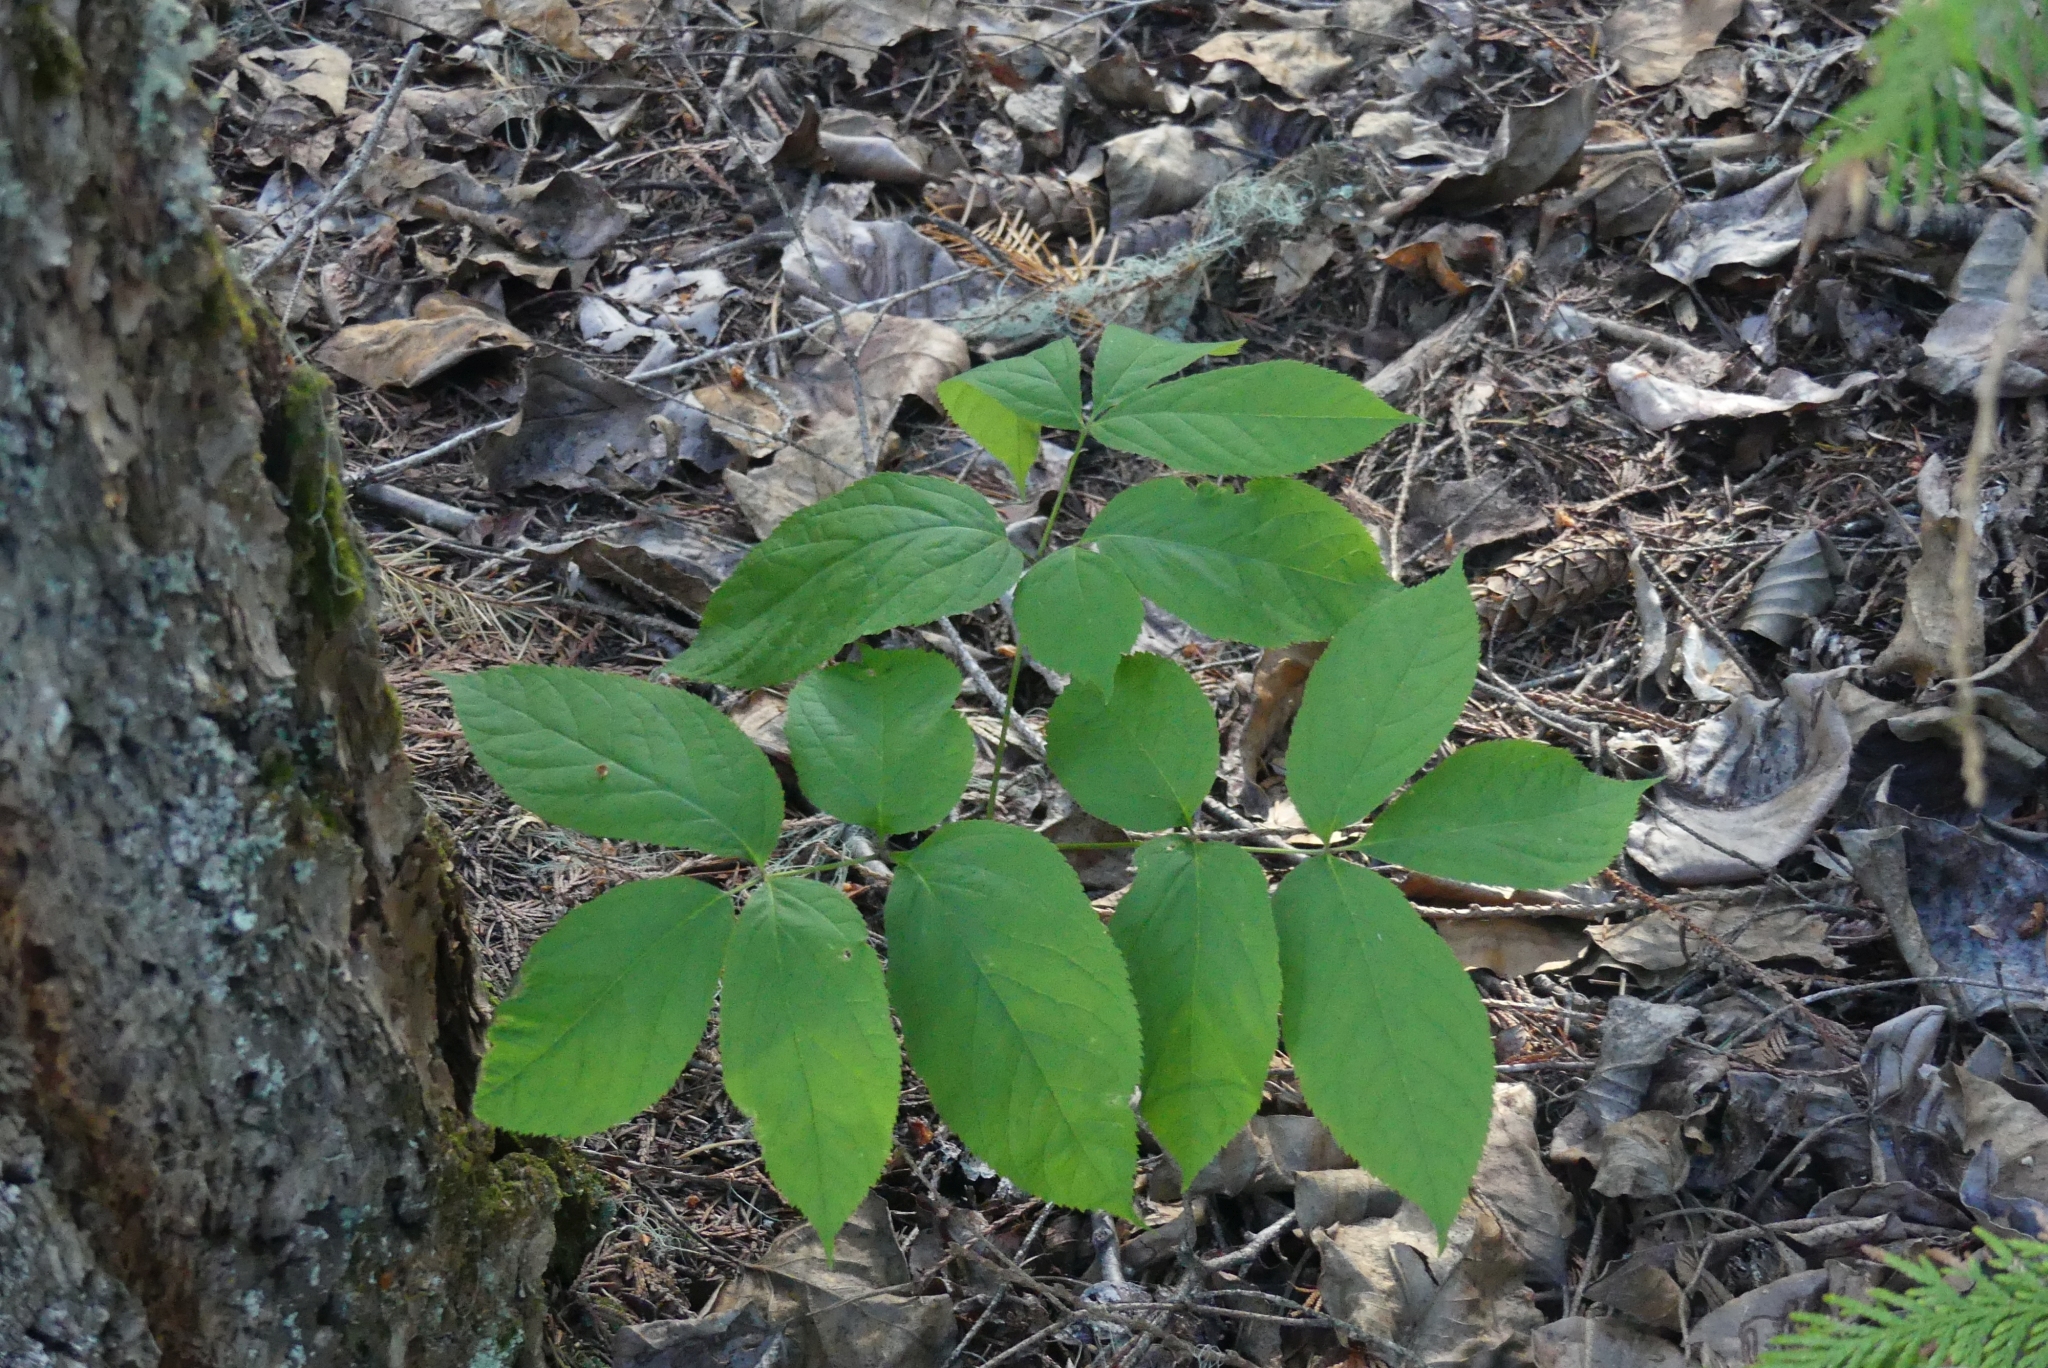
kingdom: Plantae
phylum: Tracheophyta
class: Magnoliopsida
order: Apiales
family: Araliaceae
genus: Aralia
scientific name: Aralia nudicaulis
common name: Wild sarsaparilla
